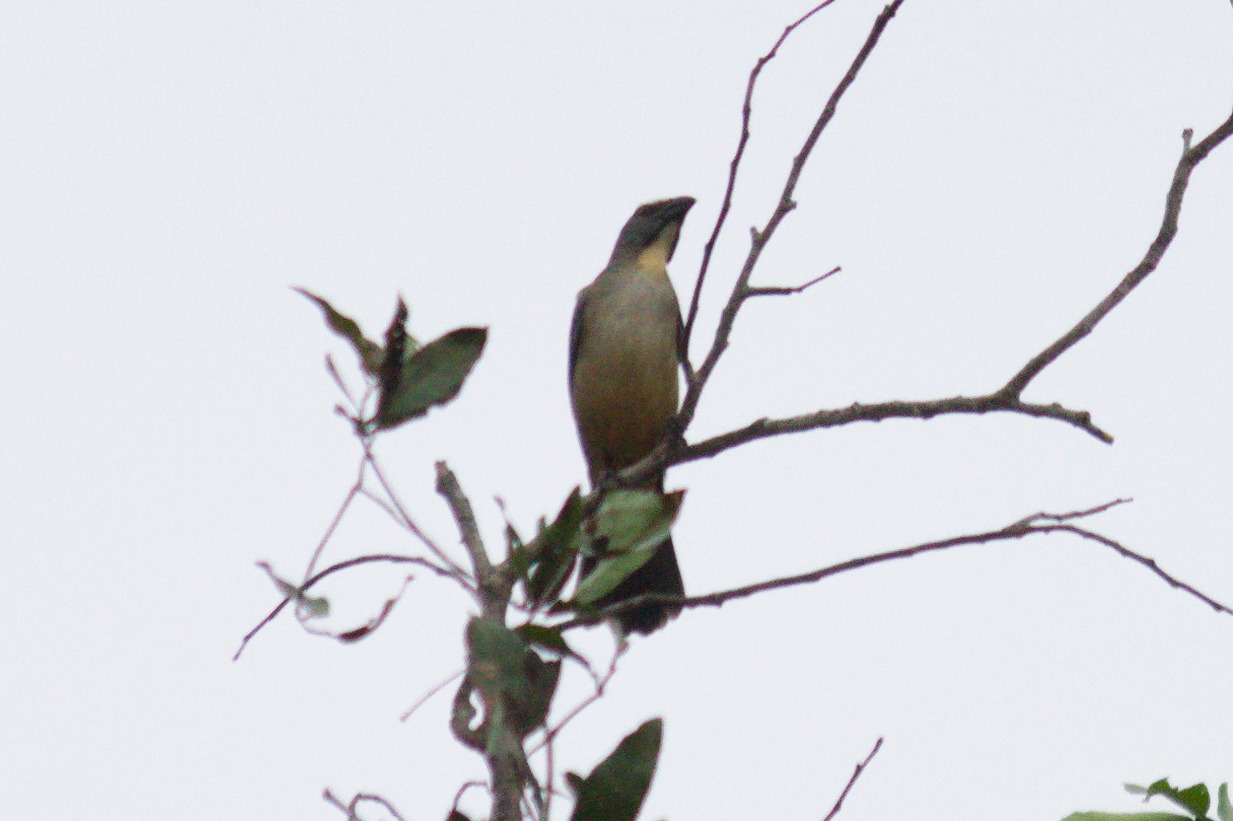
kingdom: Animalia
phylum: Chordata
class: Aves
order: Passeriformes
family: Thraupidae
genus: Saltator
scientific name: Saltator coerulescens
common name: Grayish saltator
